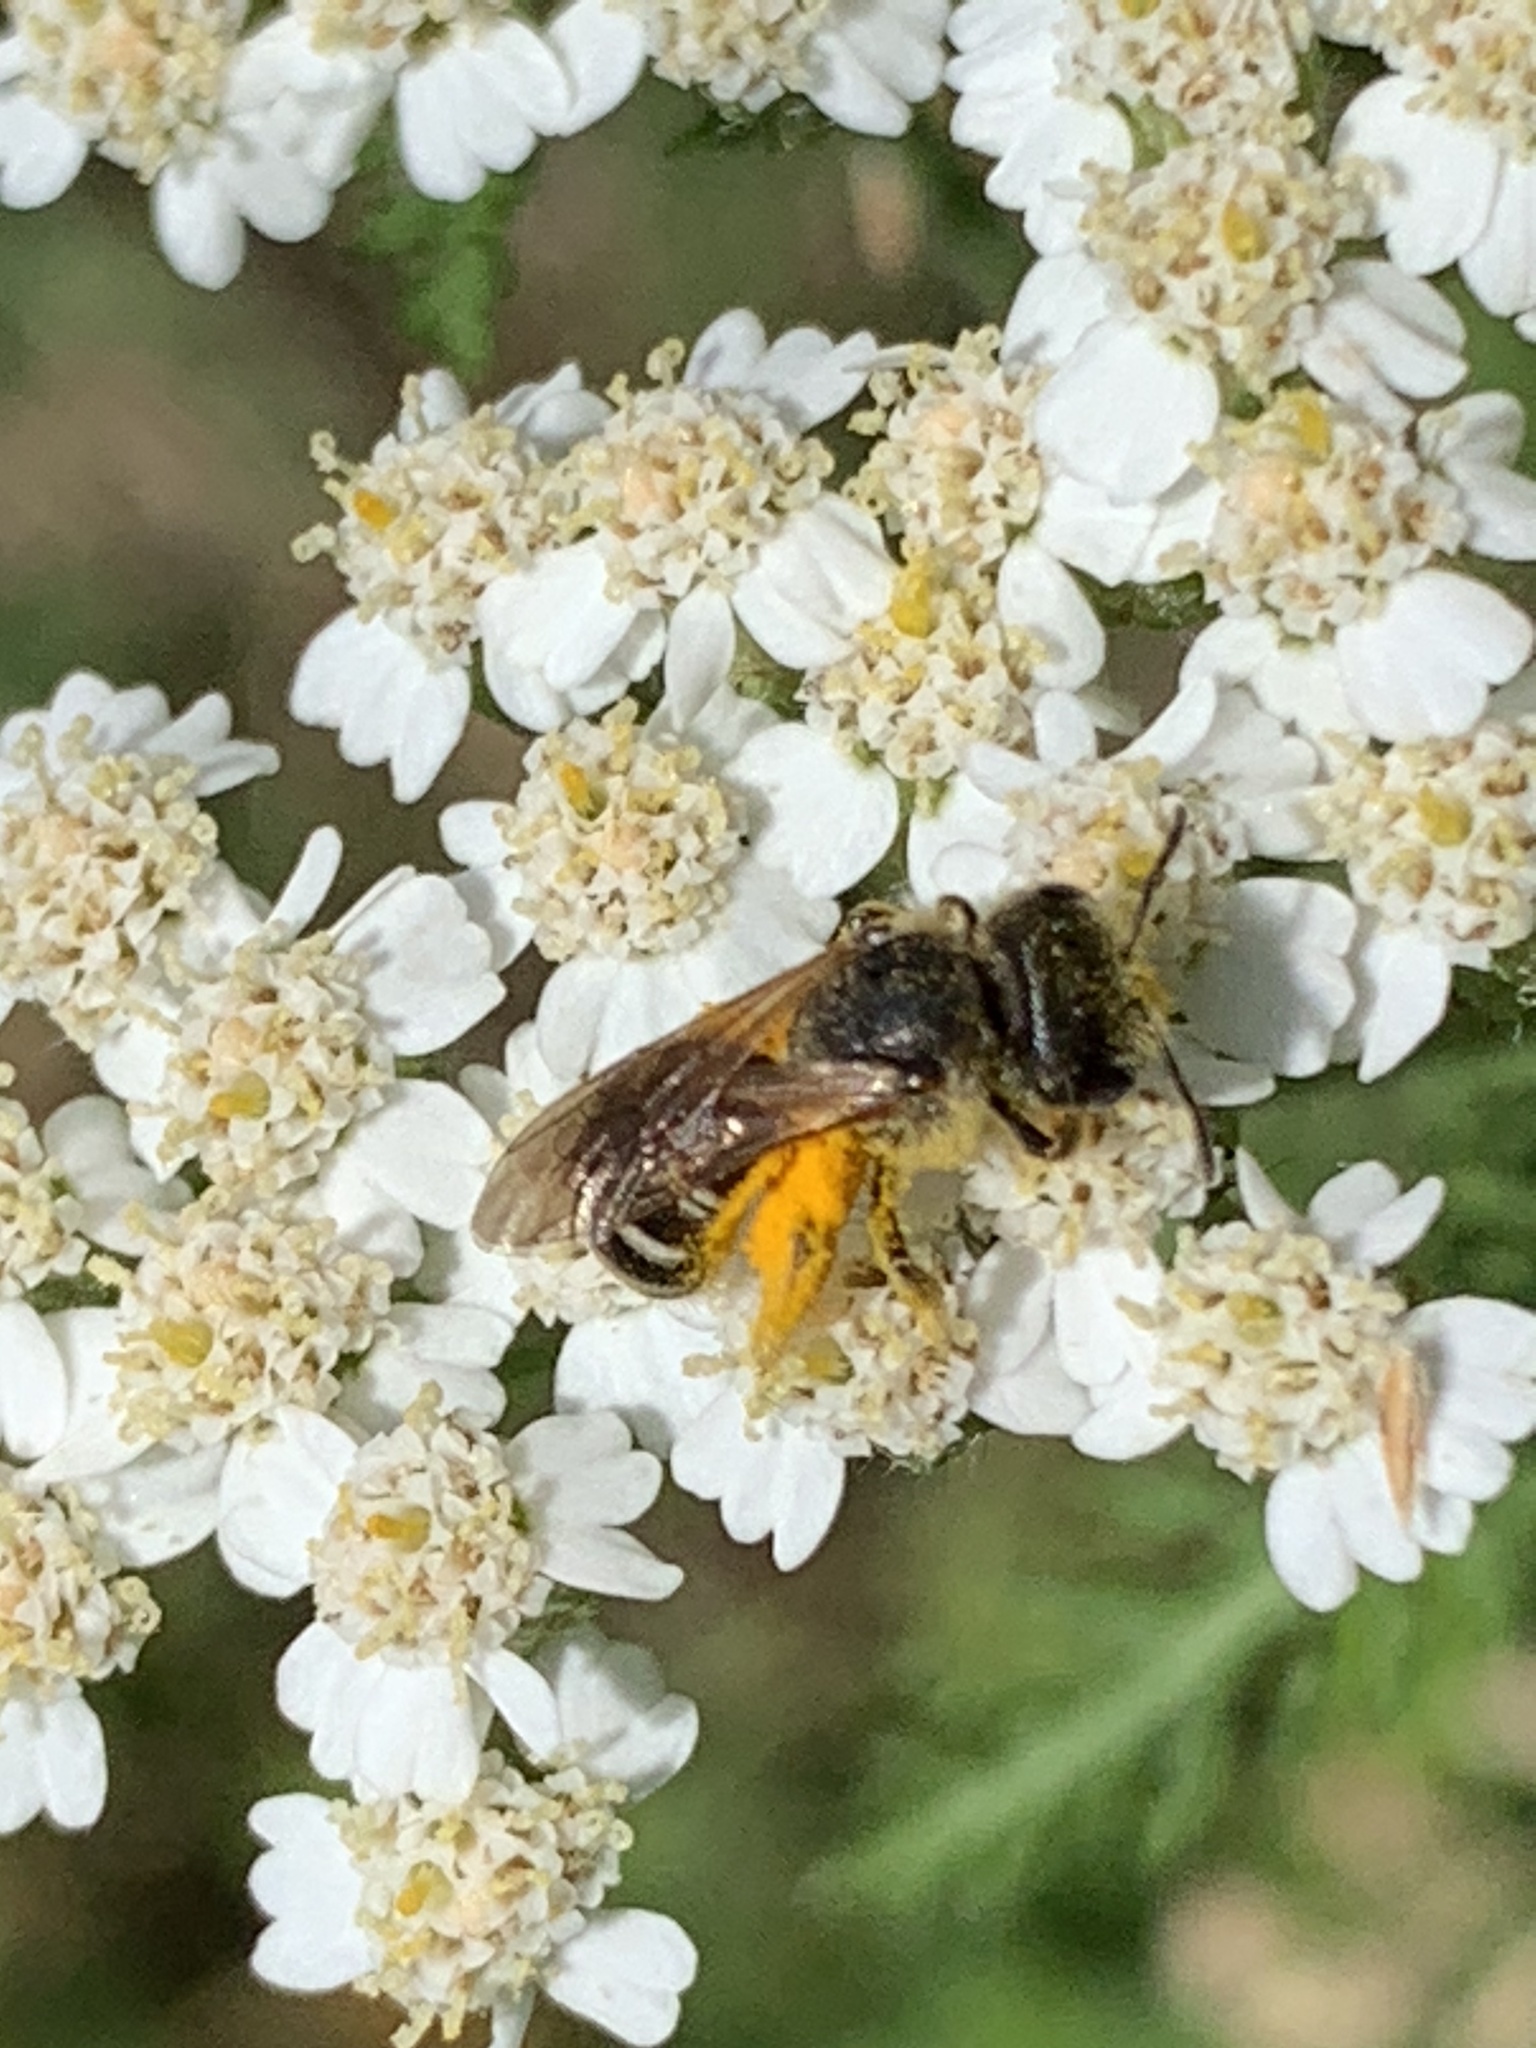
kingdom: Animalia
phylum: Arthropoda
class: Insecta
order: Hymenoptera
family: Halictidae
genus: Halictus
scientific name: Halictus ligatus
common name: Ligated furrow bee
